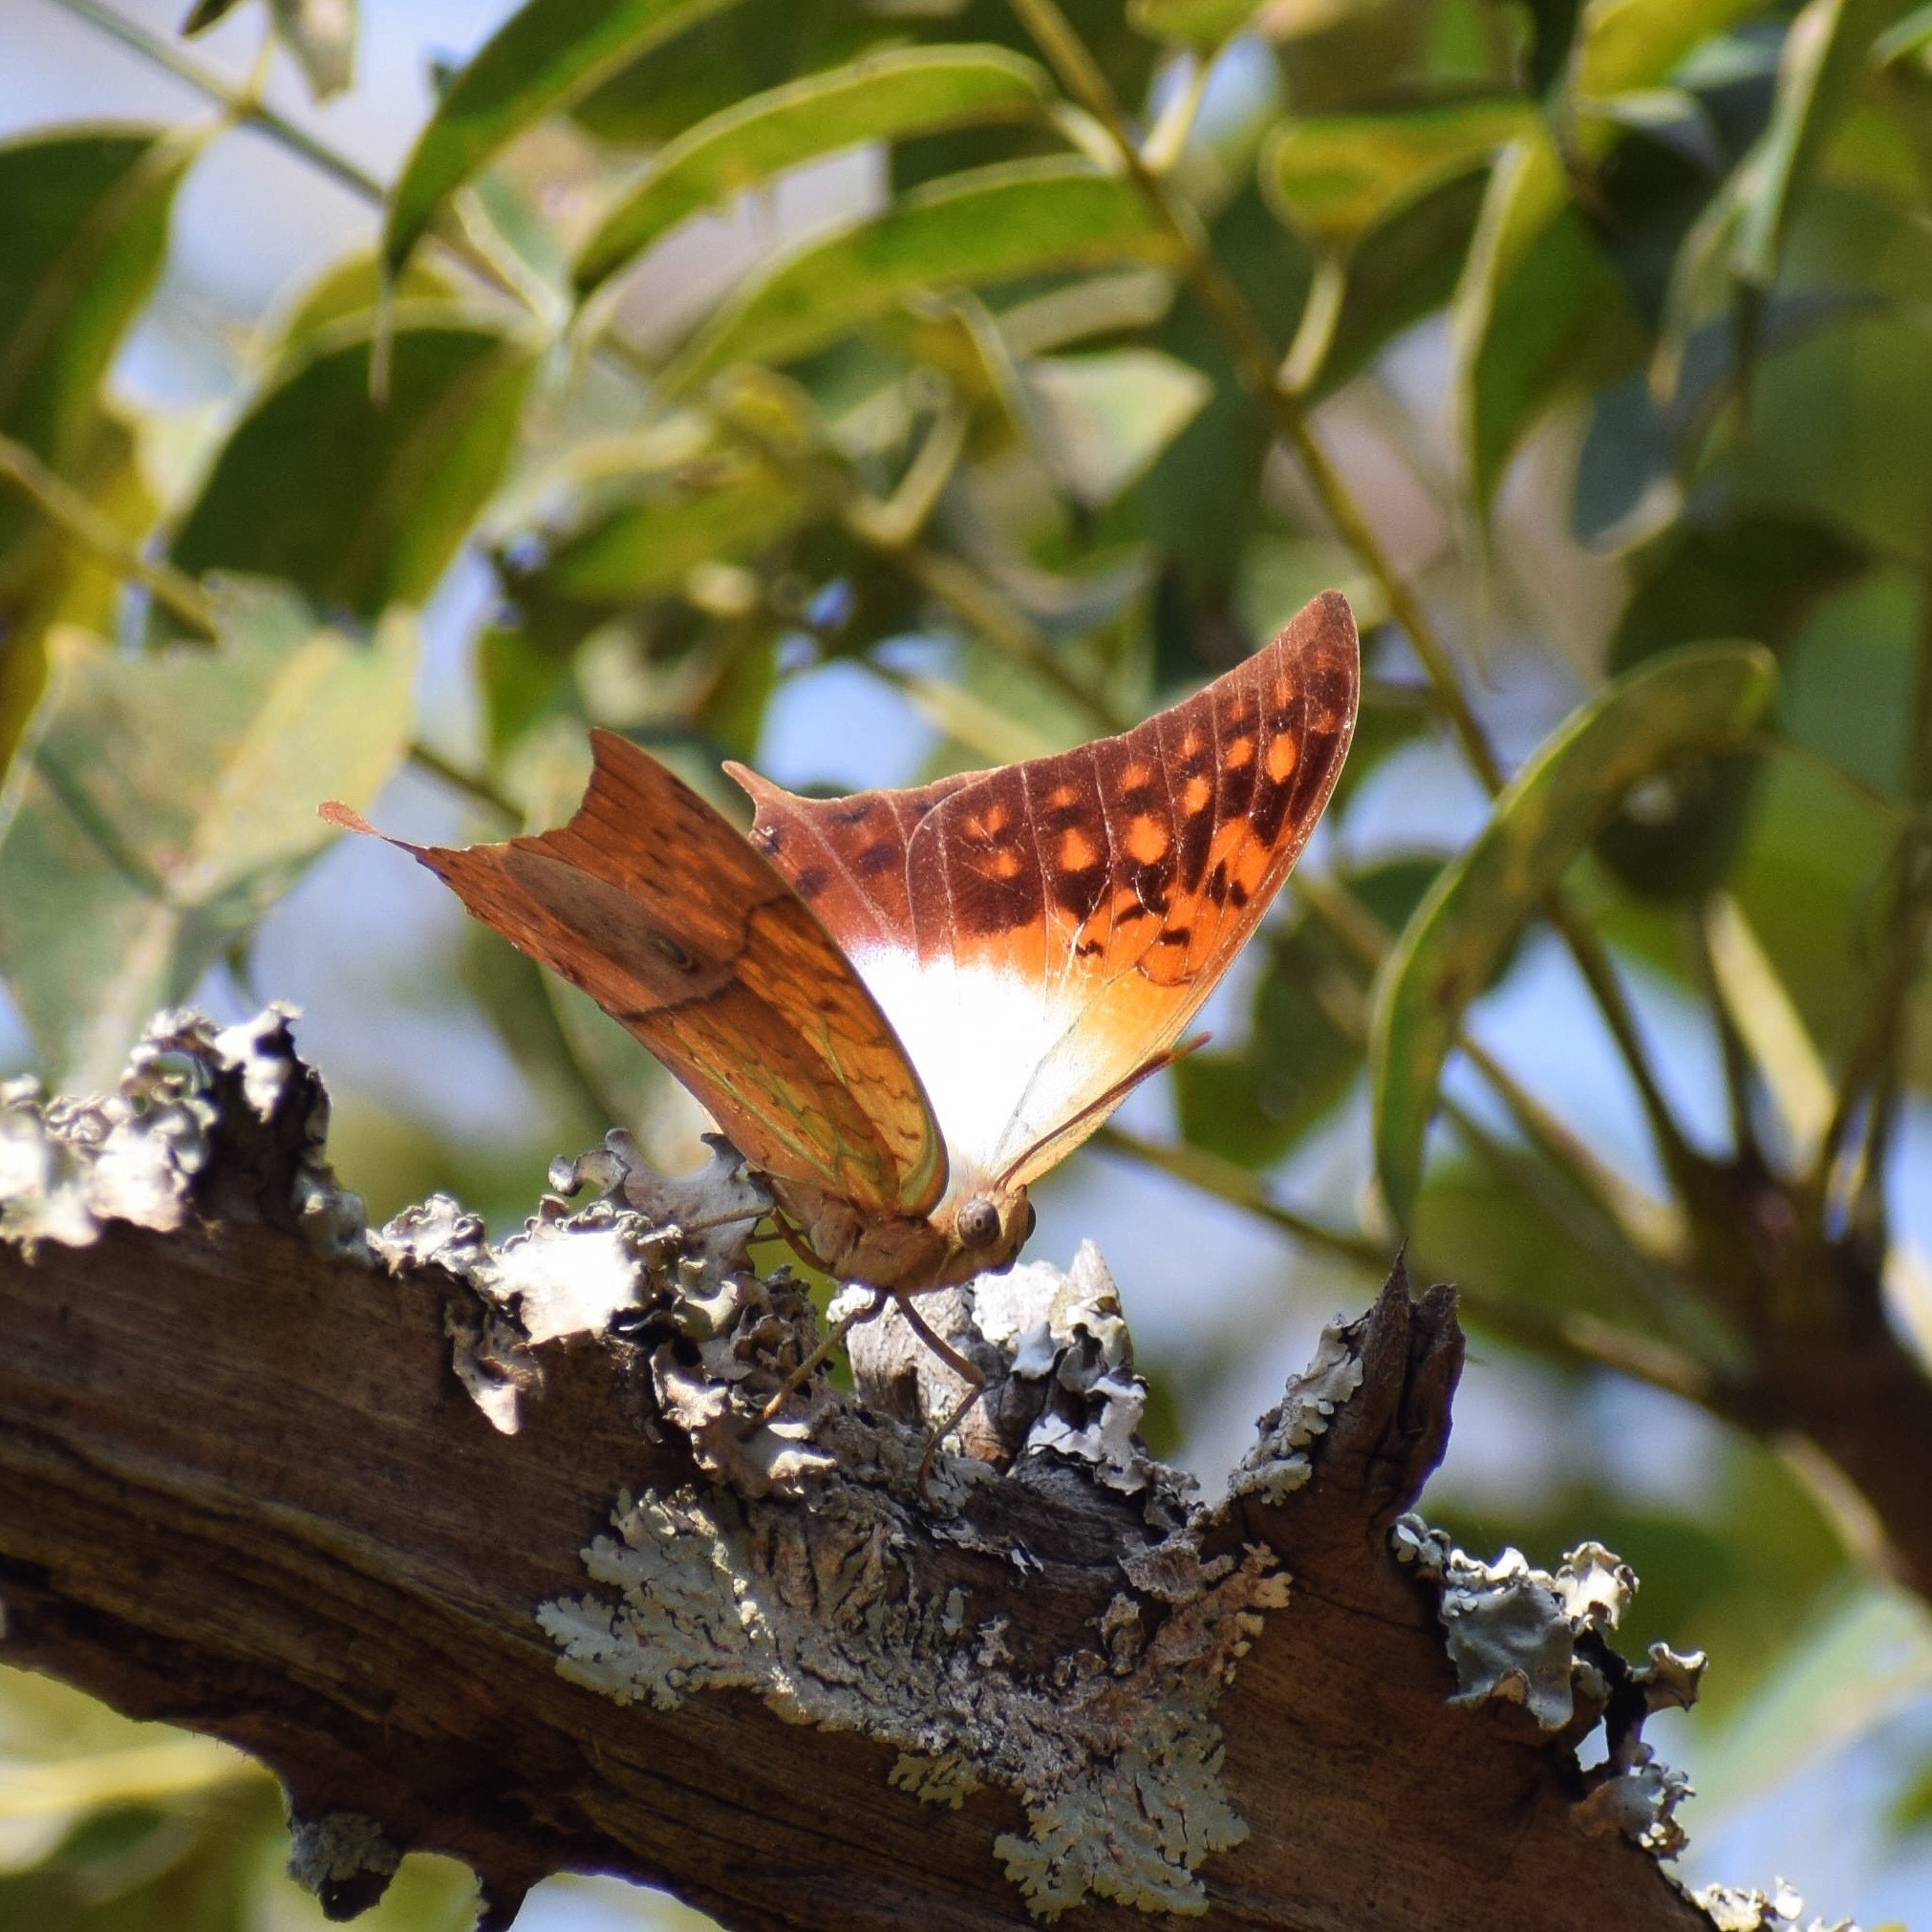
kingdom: Animalia
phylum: Arthropoda
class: Insecta
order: Lepidoptera
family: Nymphalidae
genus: Charaxes
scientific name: Charaxes varanes
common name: Common pearl charaxes
